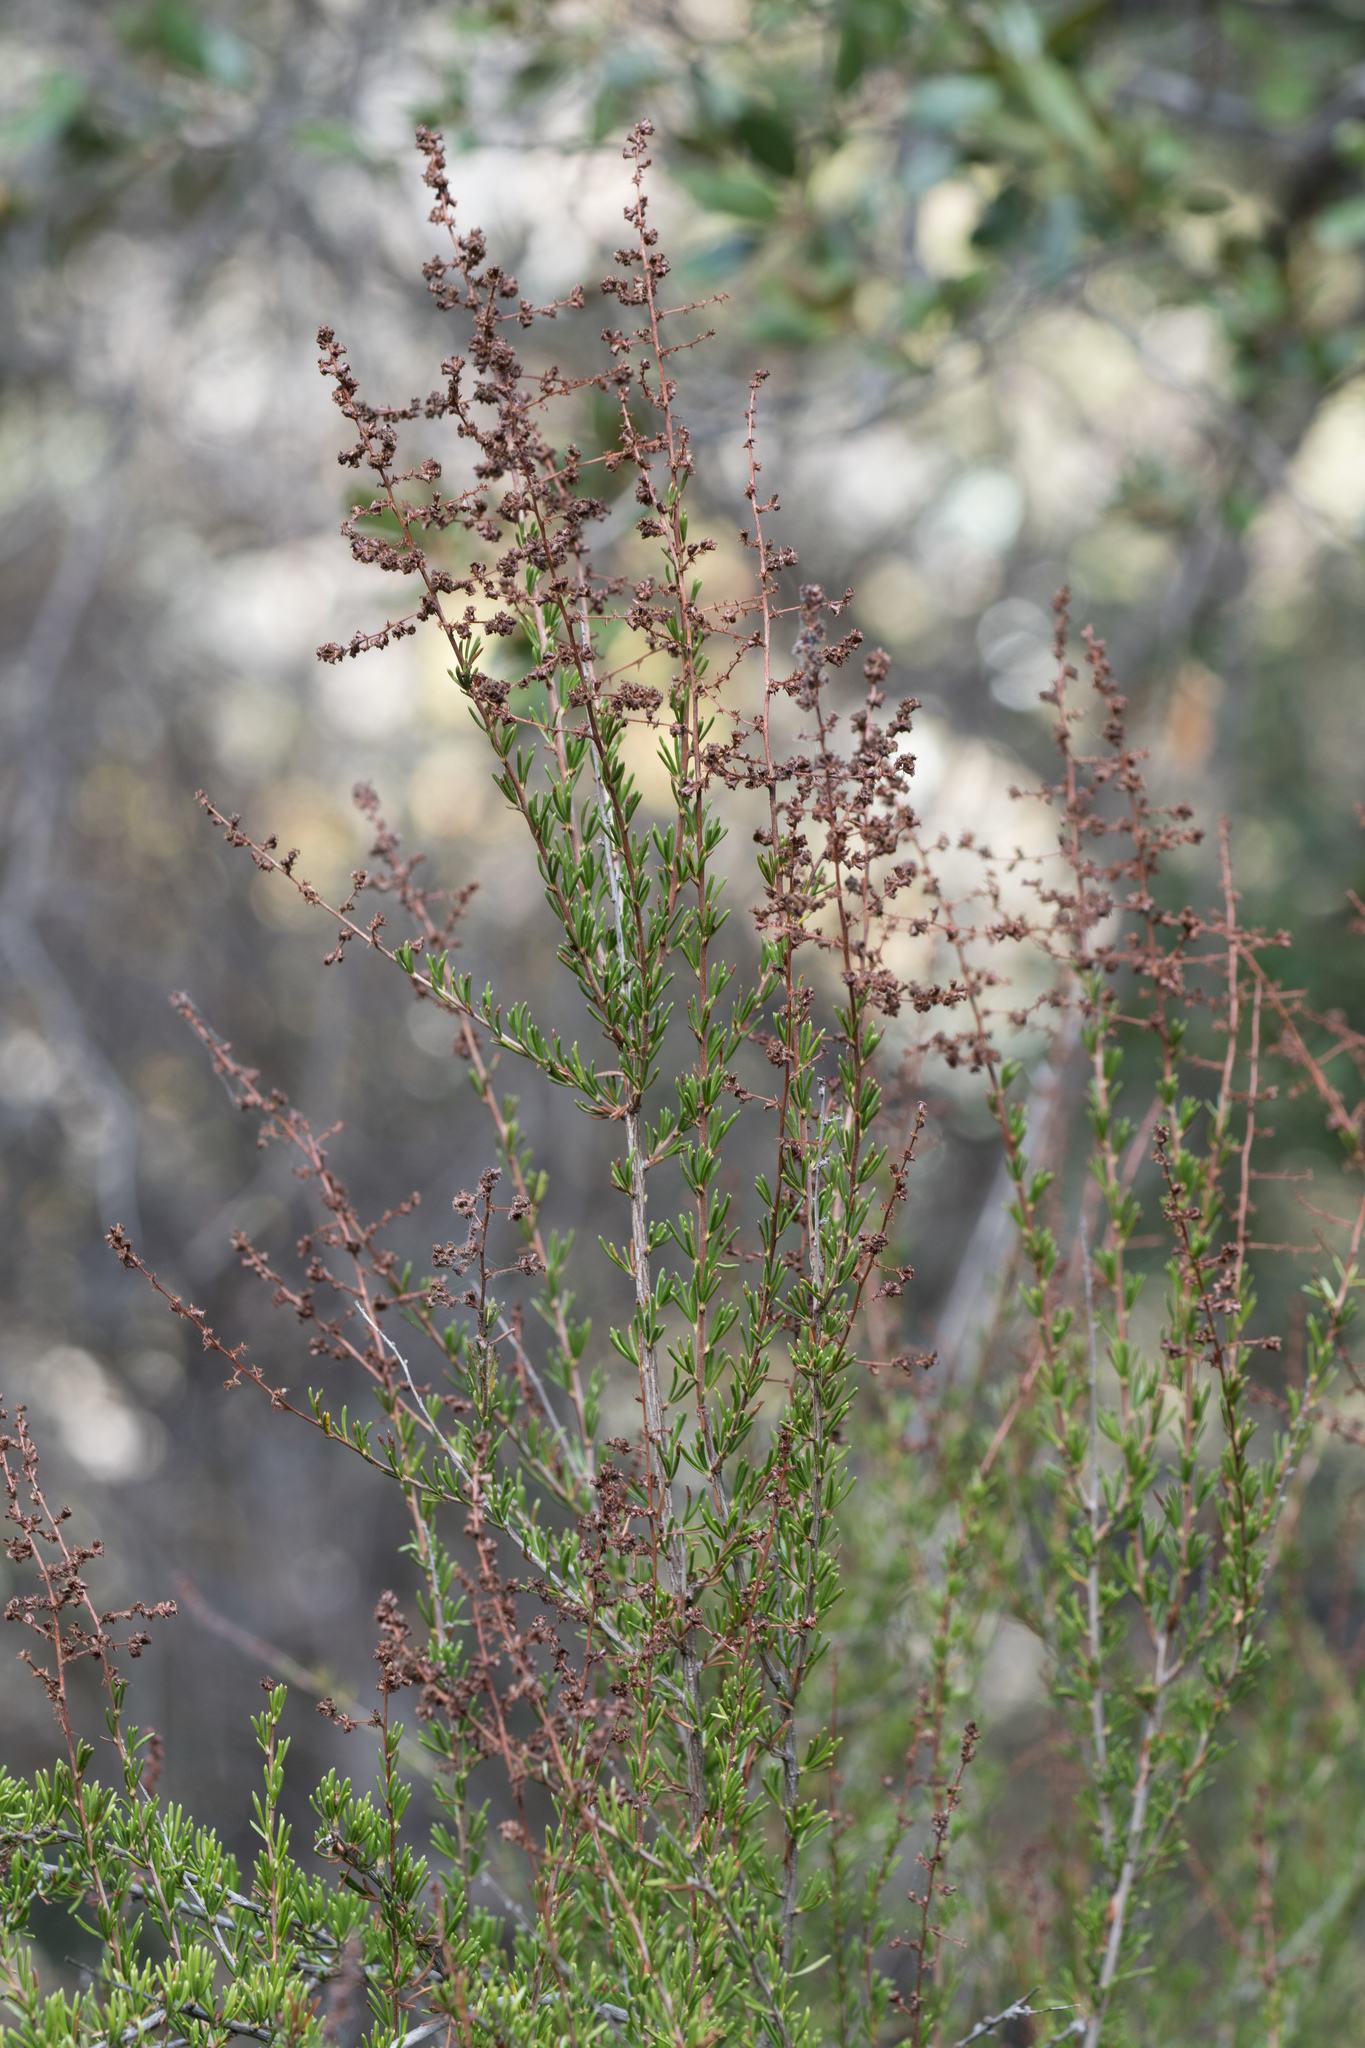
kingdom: Plantae
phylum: Tracheophyta
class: Magnoliopsida
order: Rosales
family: Rosaceae
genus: Adenostoma
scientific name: Adenostoma fasciculatum
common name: Chamise
